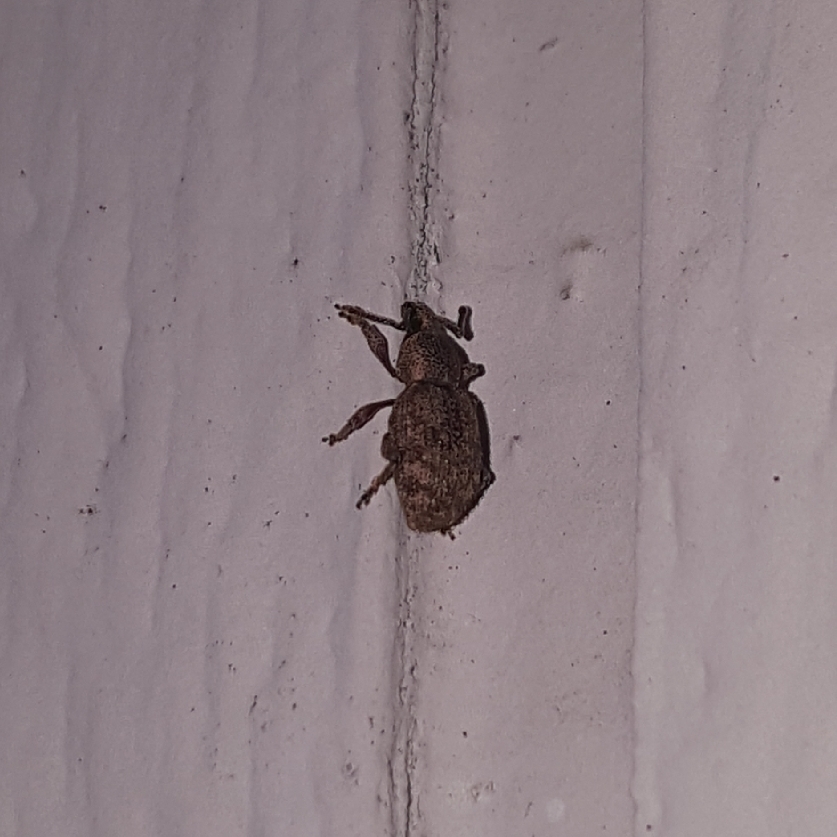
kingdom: Animalia
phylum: Arthropoda
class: Insecta
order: Coleoptera
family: Curculionidae
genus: Otiorhynchus
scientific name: Otiorhynchus singularis
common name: Clay-coloured weevil
